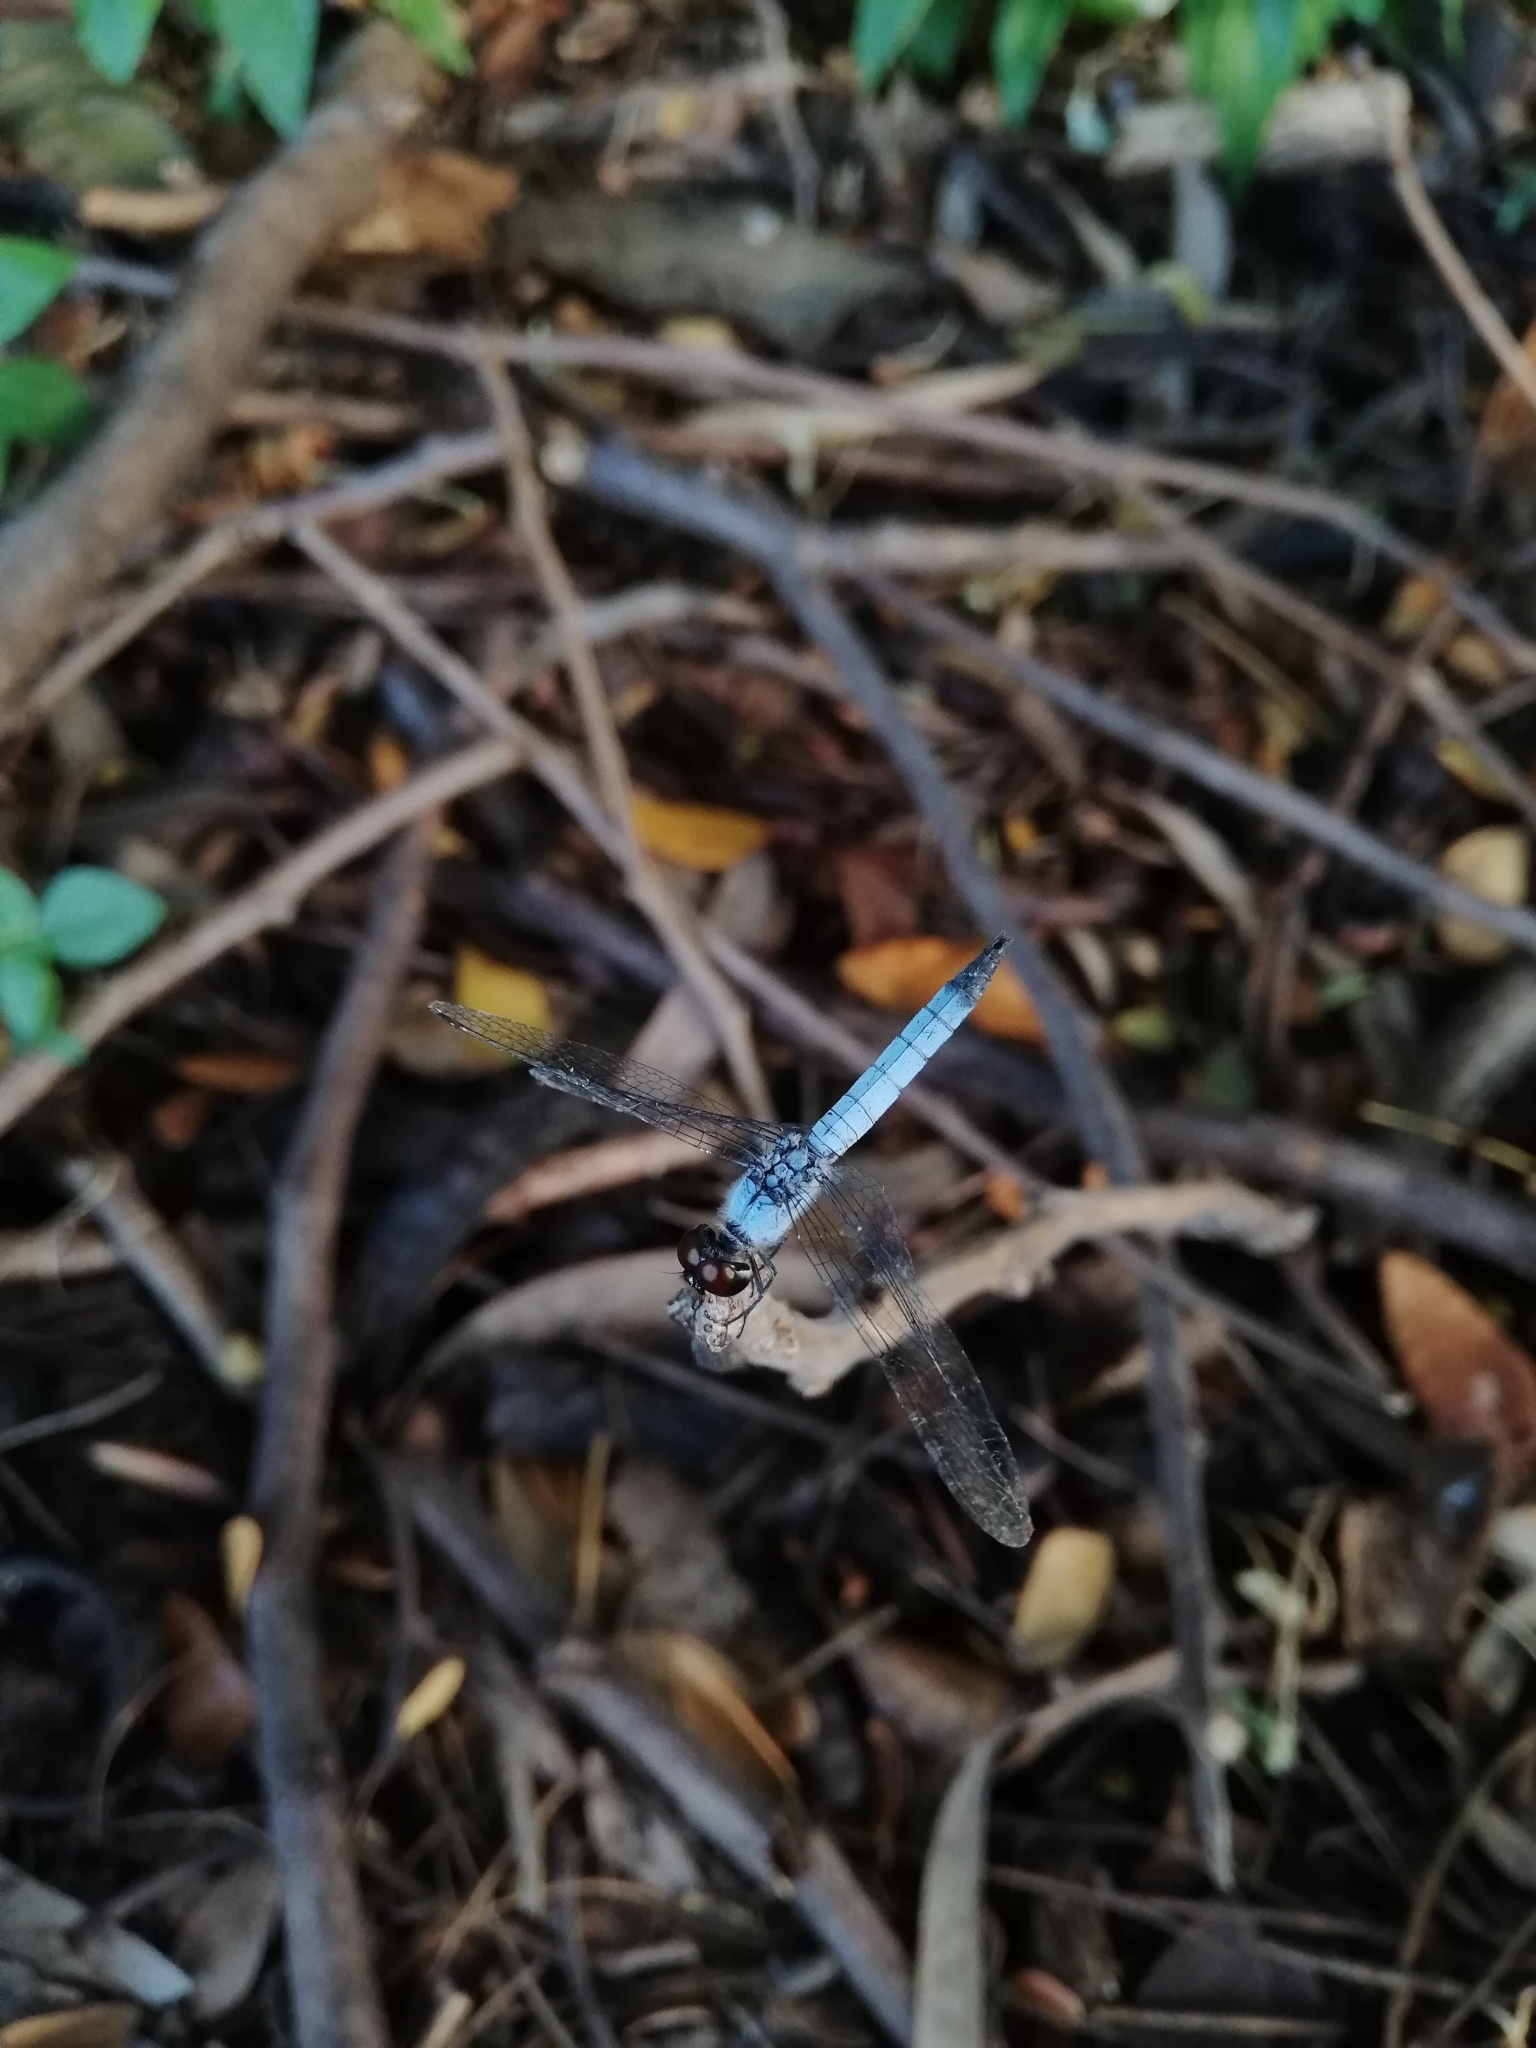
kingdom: Animalia
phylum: Arthropoda
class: Insecta
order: Odonata
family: Libellulidae
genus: Brachydiplax
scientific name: Brachydiplax denticauda
